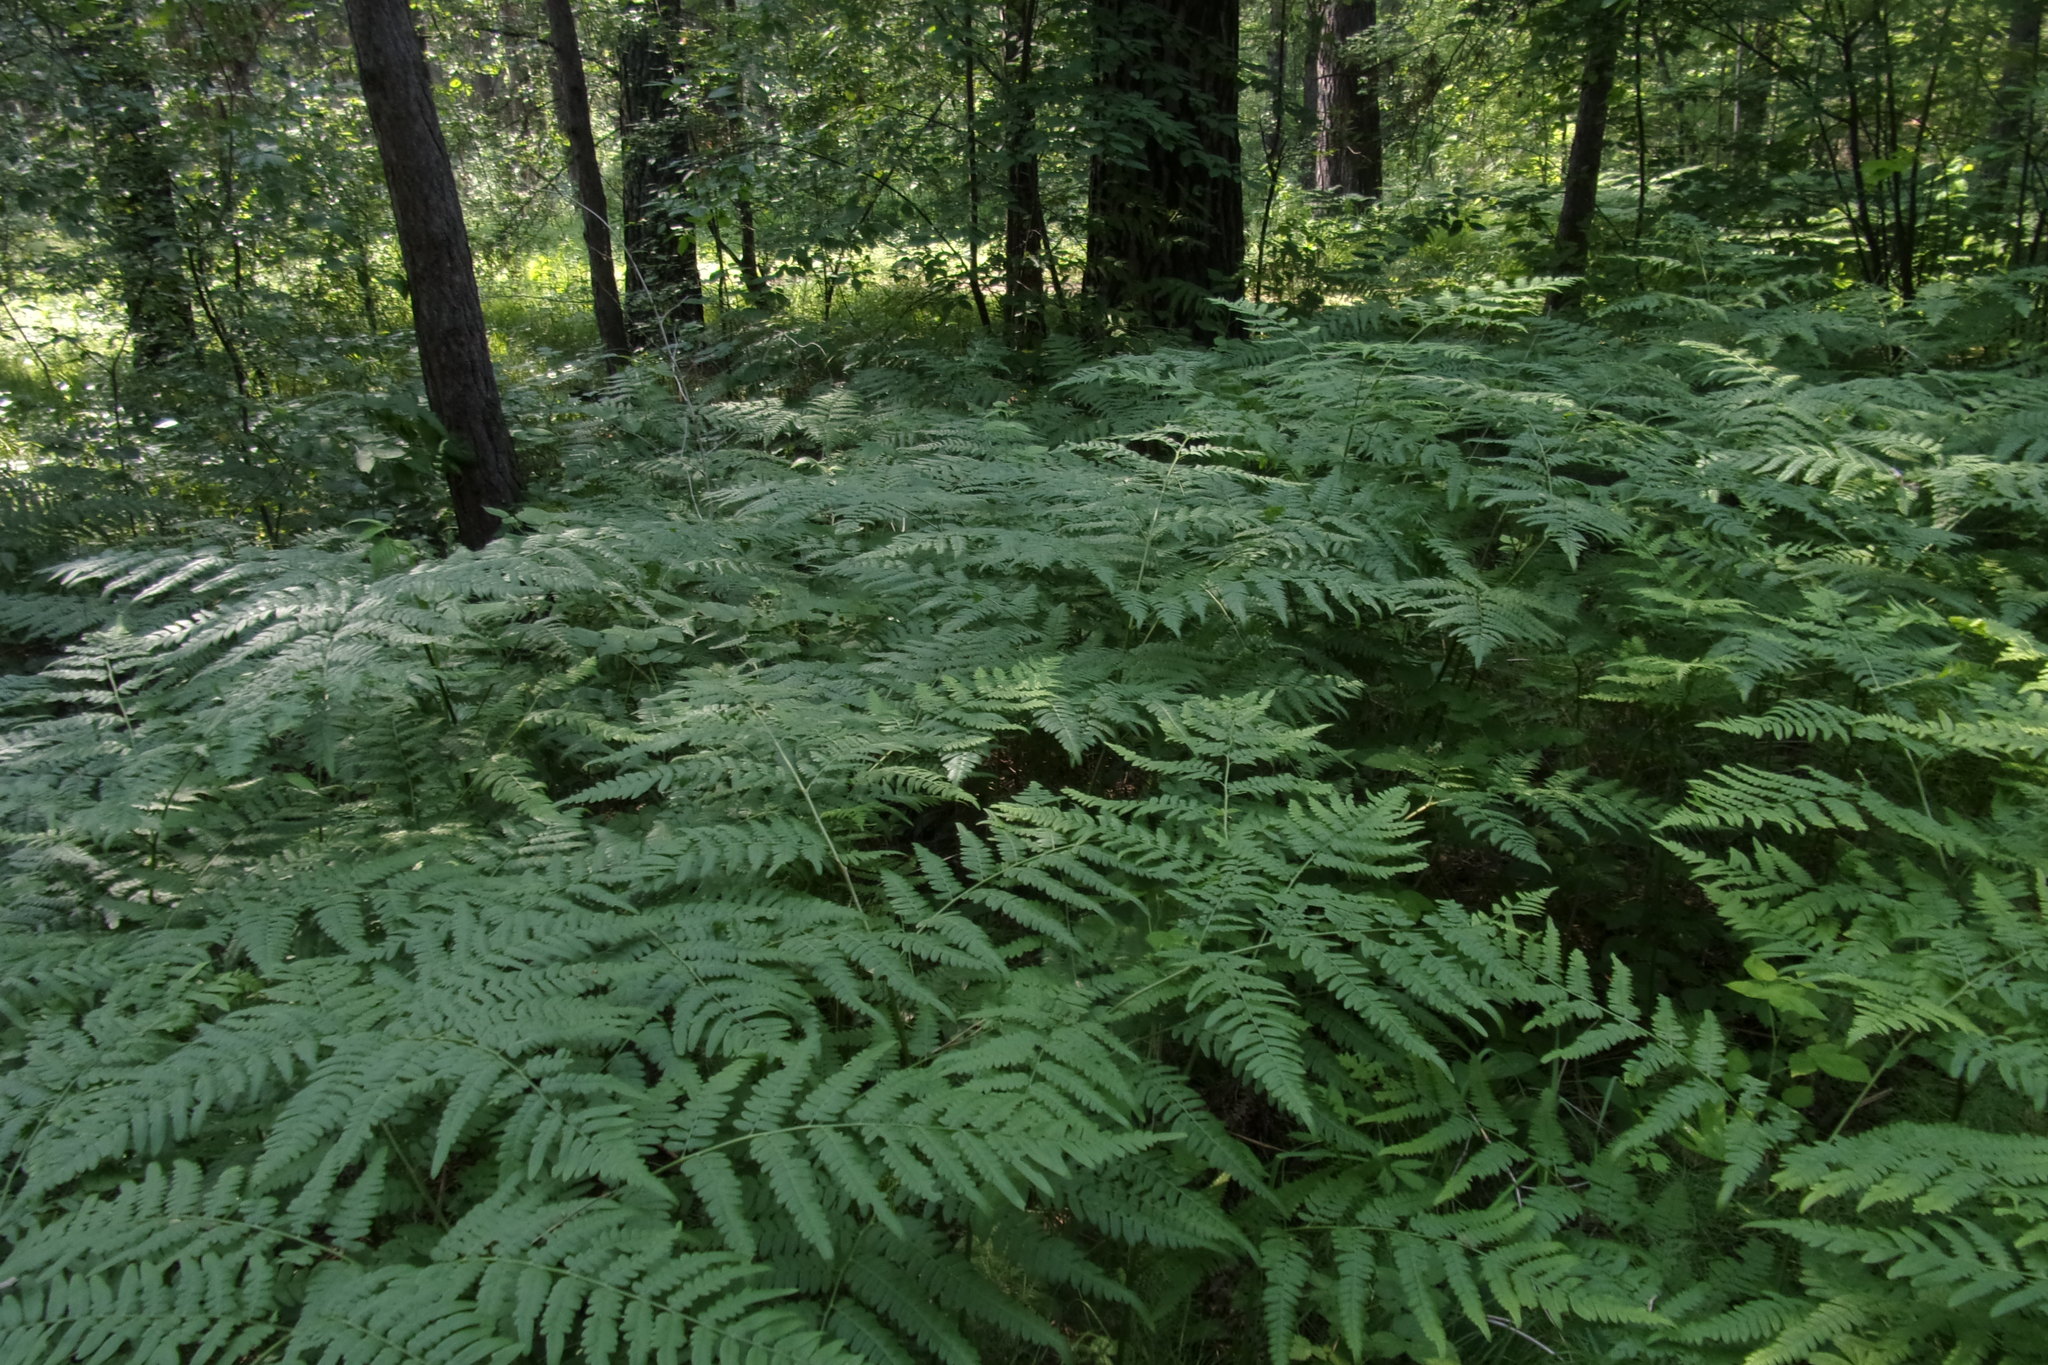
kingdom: Plantae
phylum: Tracheophyta
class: Polypodiopsida
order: Polypodiales
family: Dennstaedtiaceae
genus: Pteridium
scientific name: Pteridium aquilinum
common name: Bracken
